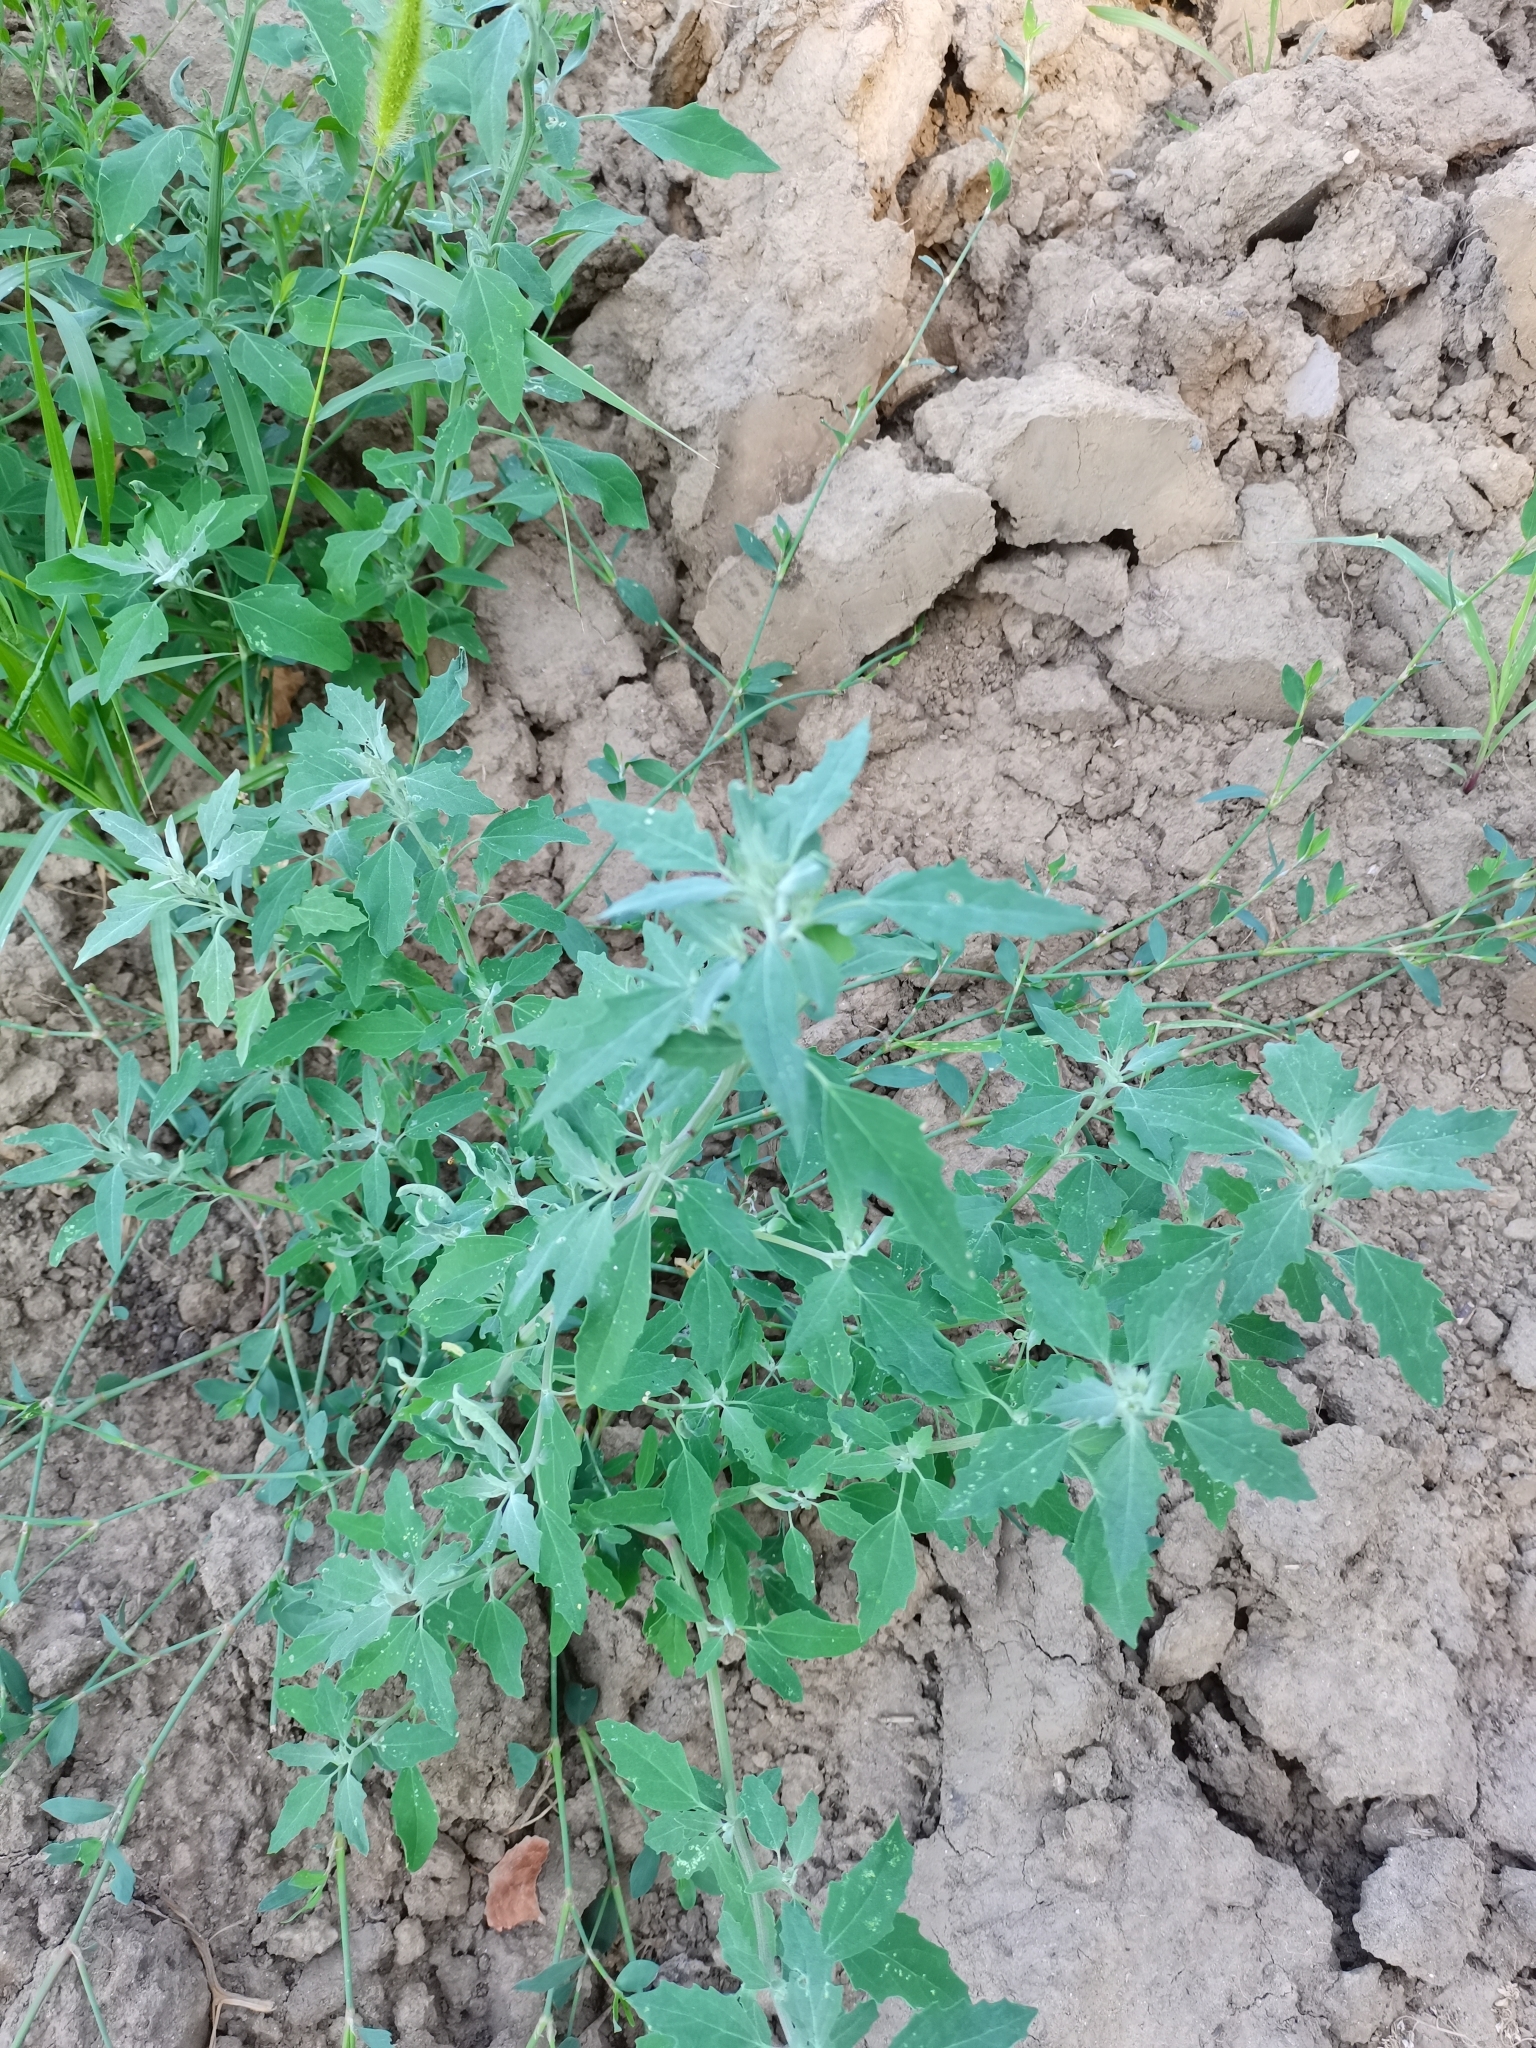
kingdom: Plantae
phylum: Tracheophyta
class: Magnoliopsida
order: Caryophyllales
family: Amaranthaceae
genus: Chenopodium
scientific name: Chenopodium album
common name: Fat-hen
